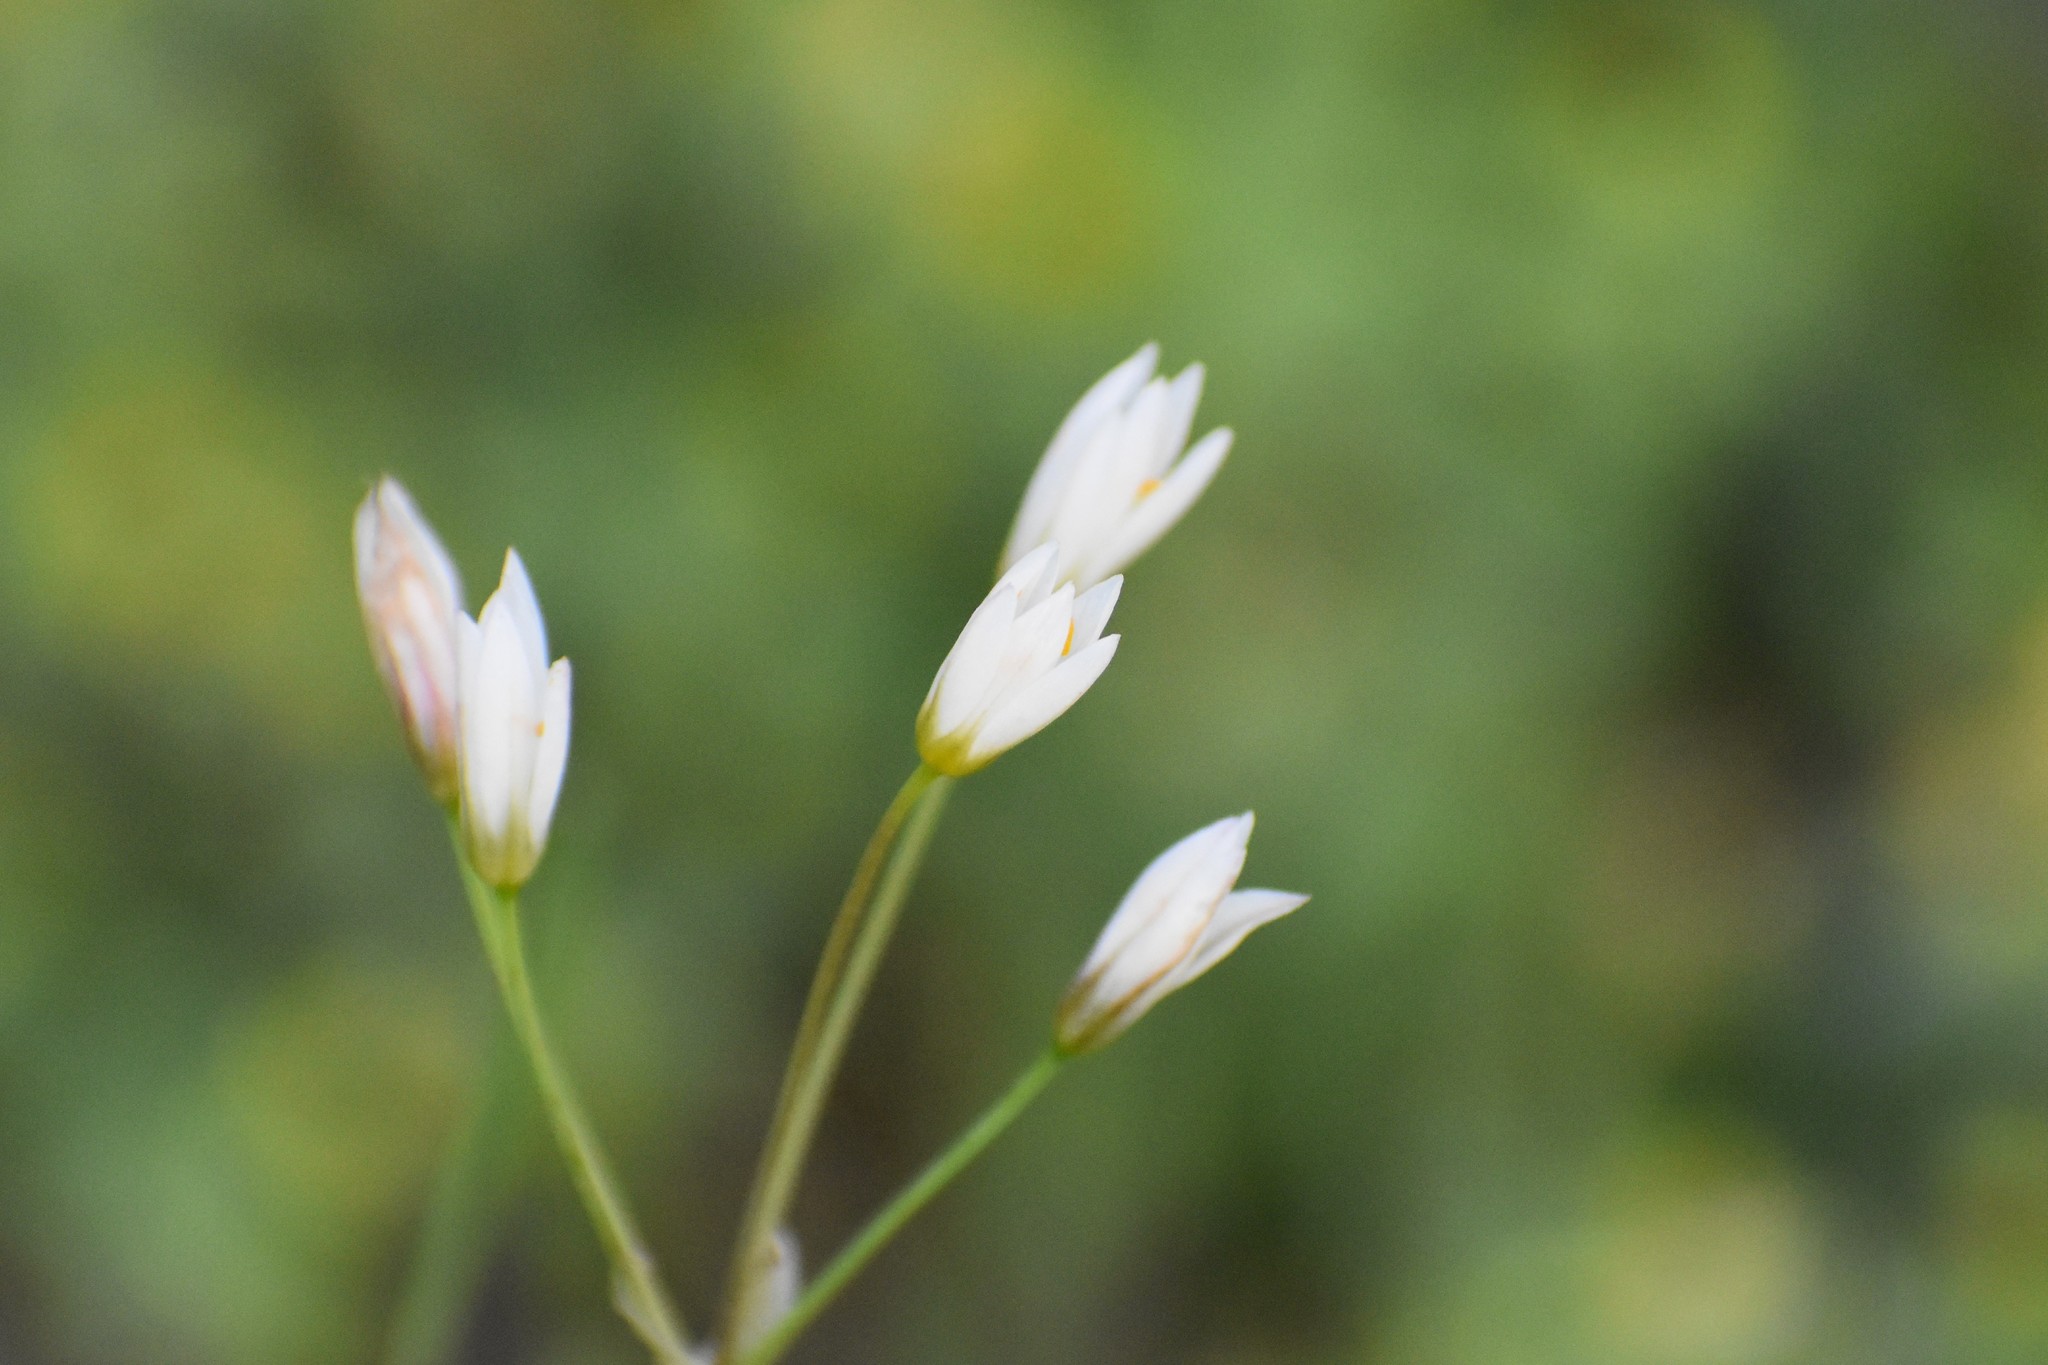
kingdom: Plantae
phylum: Tracheophyta
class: Liliopsida
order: Asparagales
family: Amaryllidaceae
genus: Nothoscordum
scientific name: Nothoscordum bivalve
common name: Crow-poison
